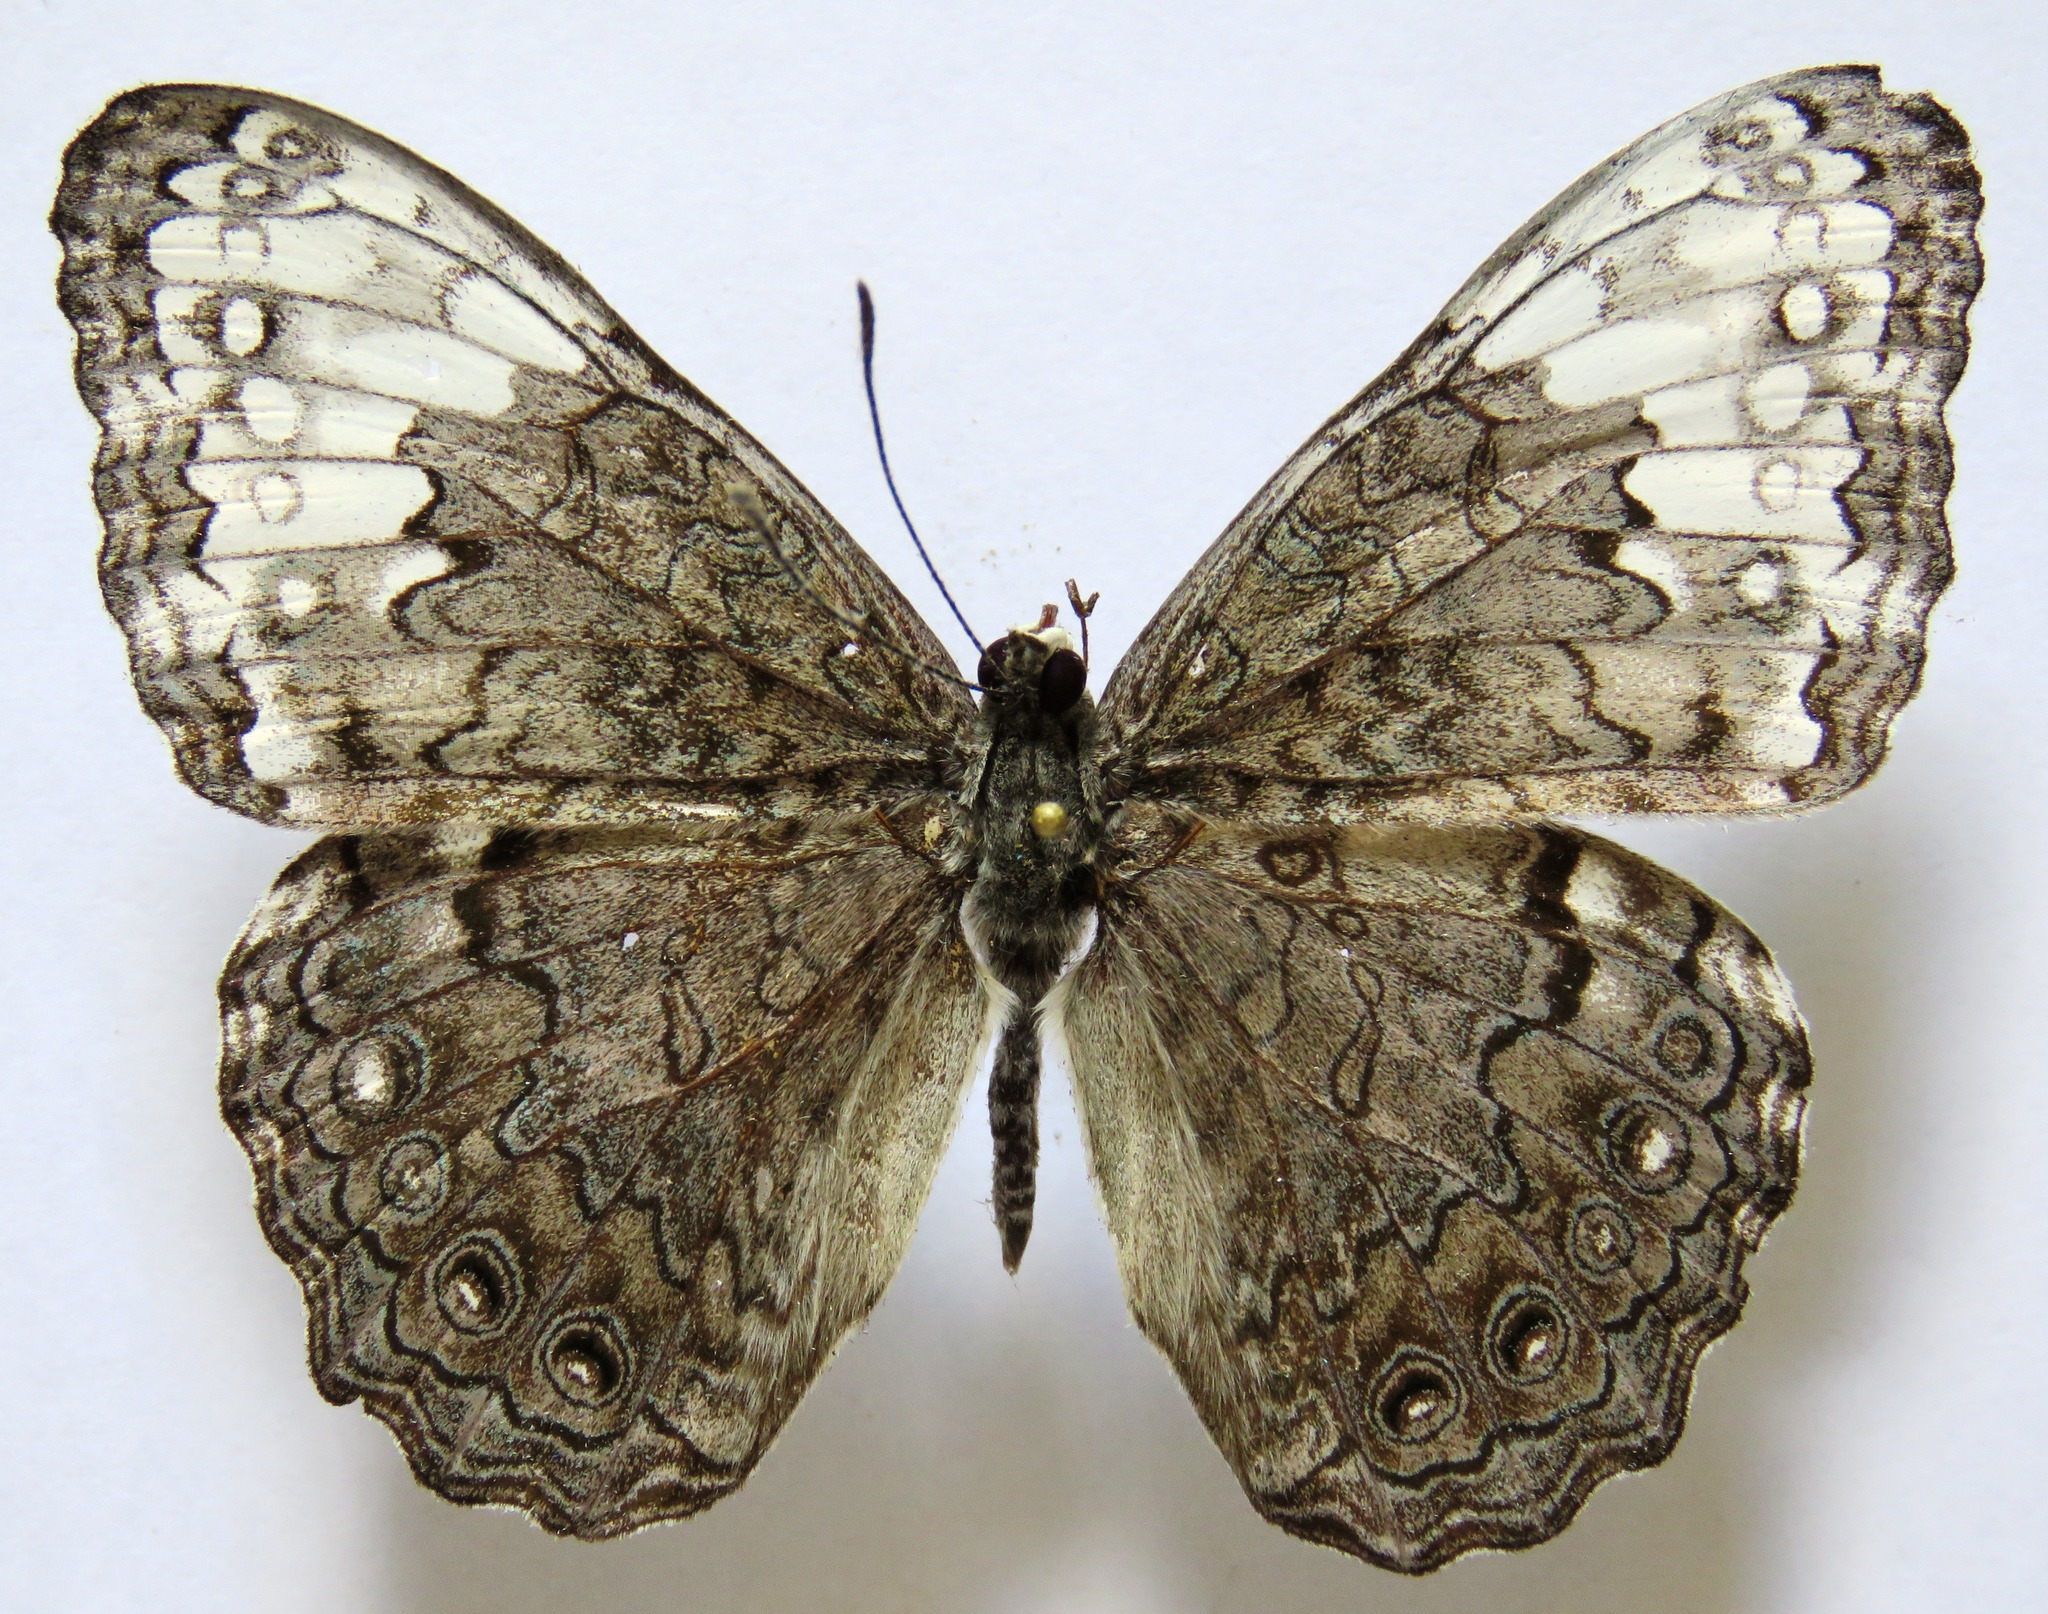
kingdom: Animalia
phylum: Arthropoda
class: Insecta
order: Lepidoptera
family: Nymphalidae
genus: Hamadryas
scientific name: Hamadryas glauconome
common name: Glaucous cracker
